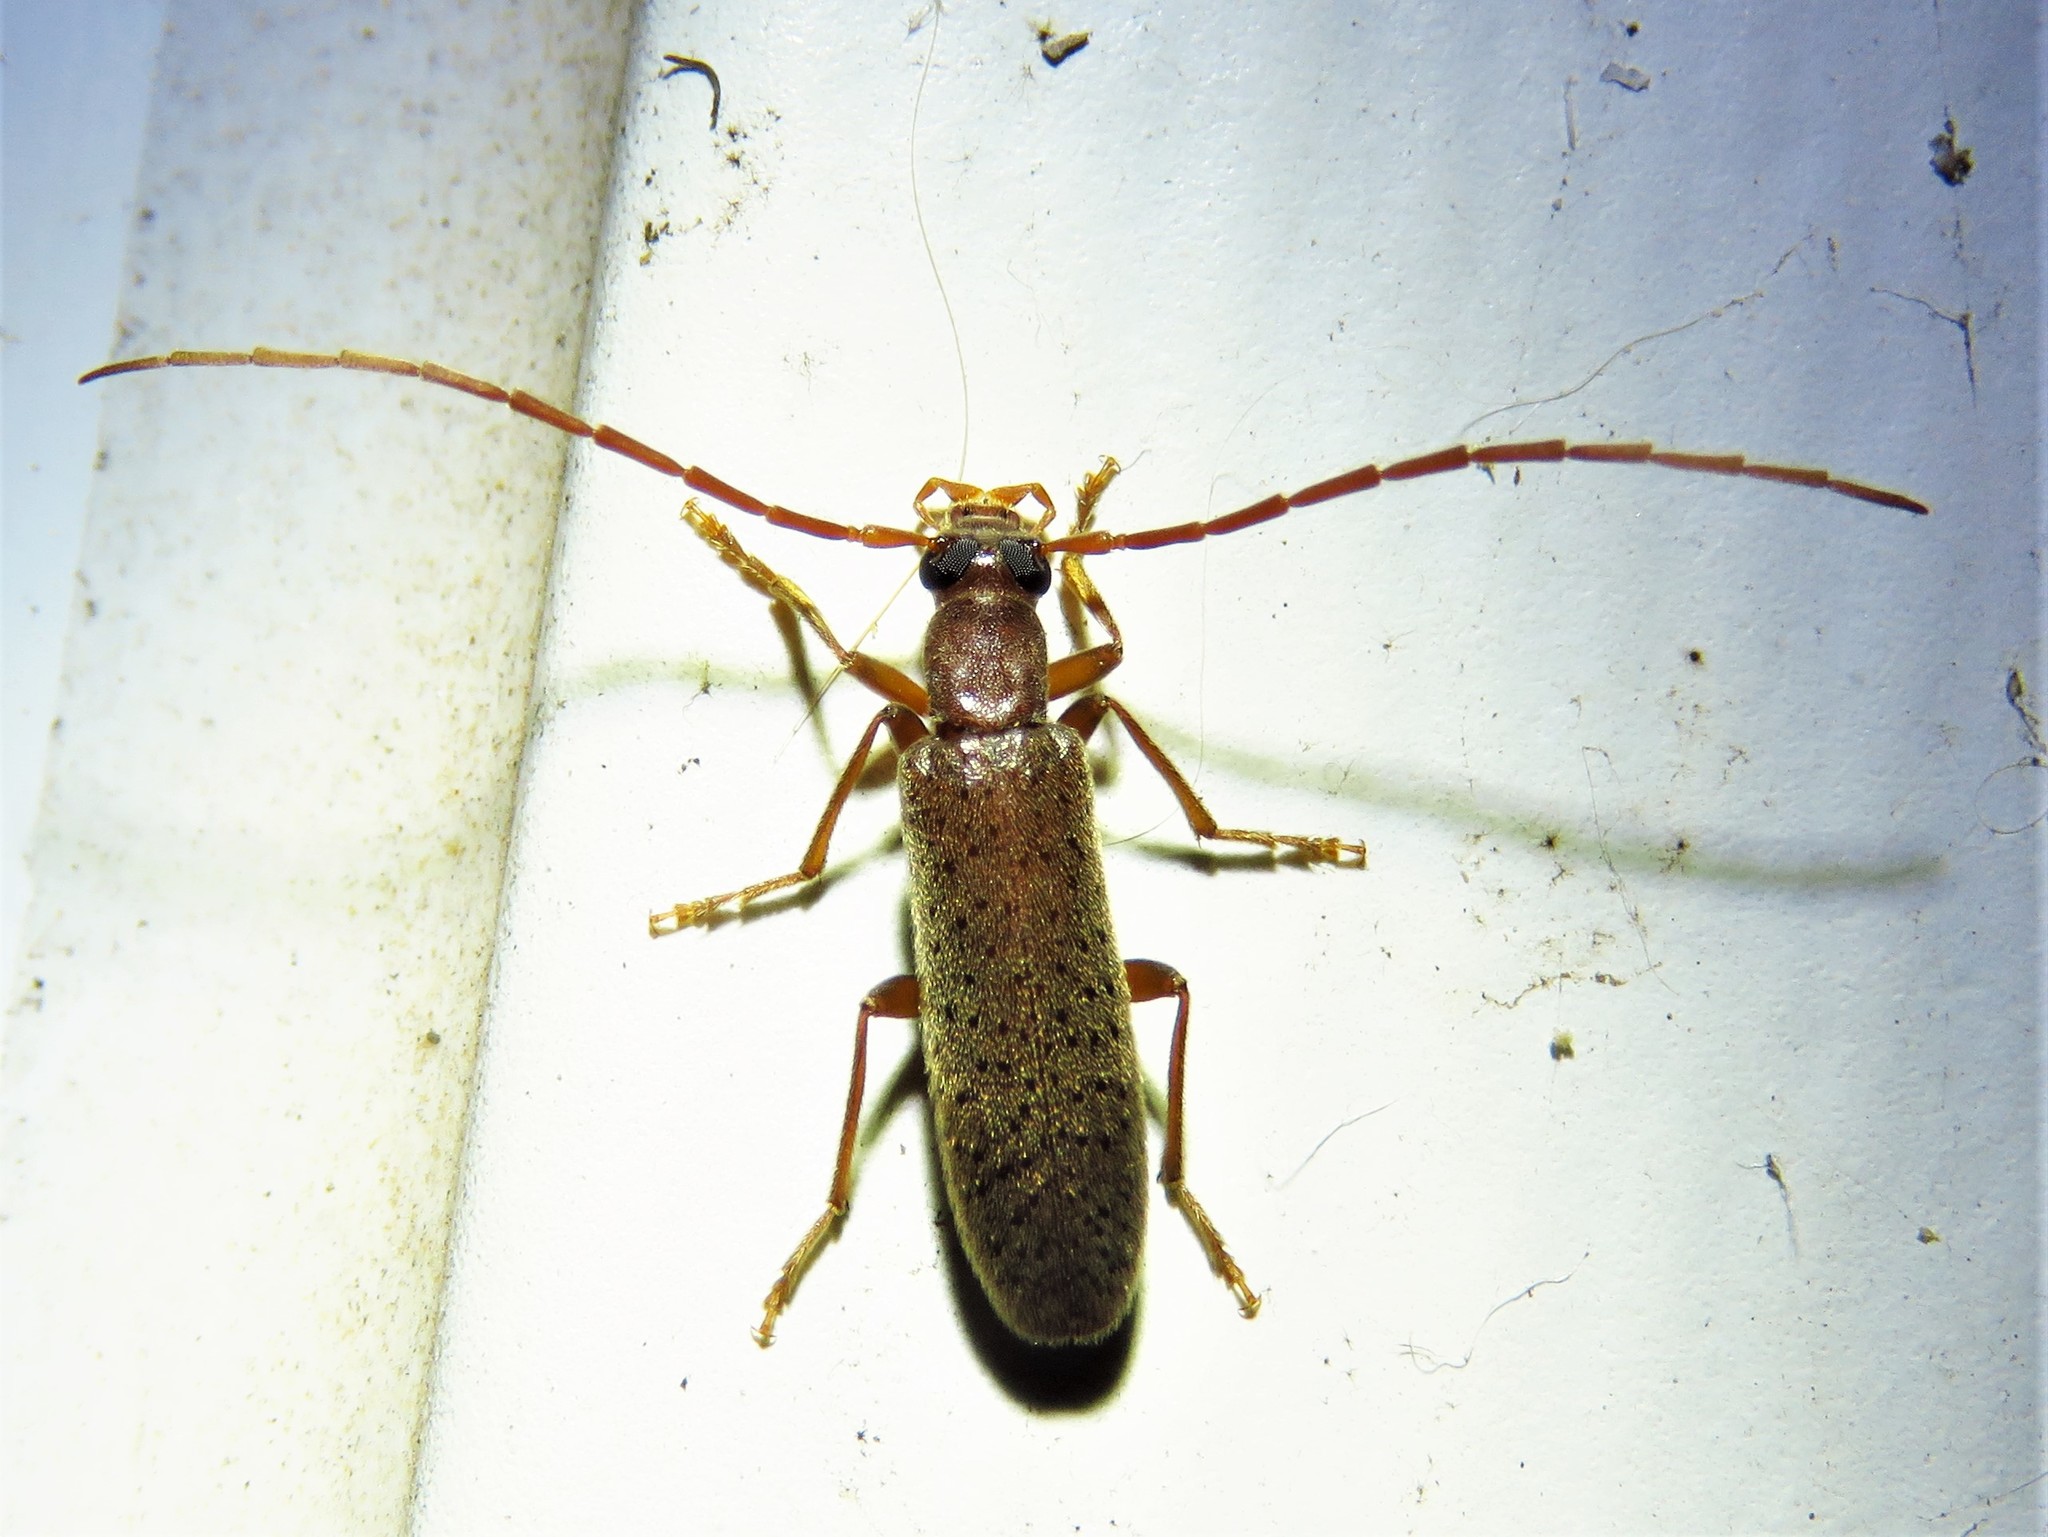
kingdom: Animalia
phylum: Arthropoda
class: Insecta
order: Coleoptera
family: Oedemeridae
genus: Sparedrus
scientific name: Sparedrus aspersus
